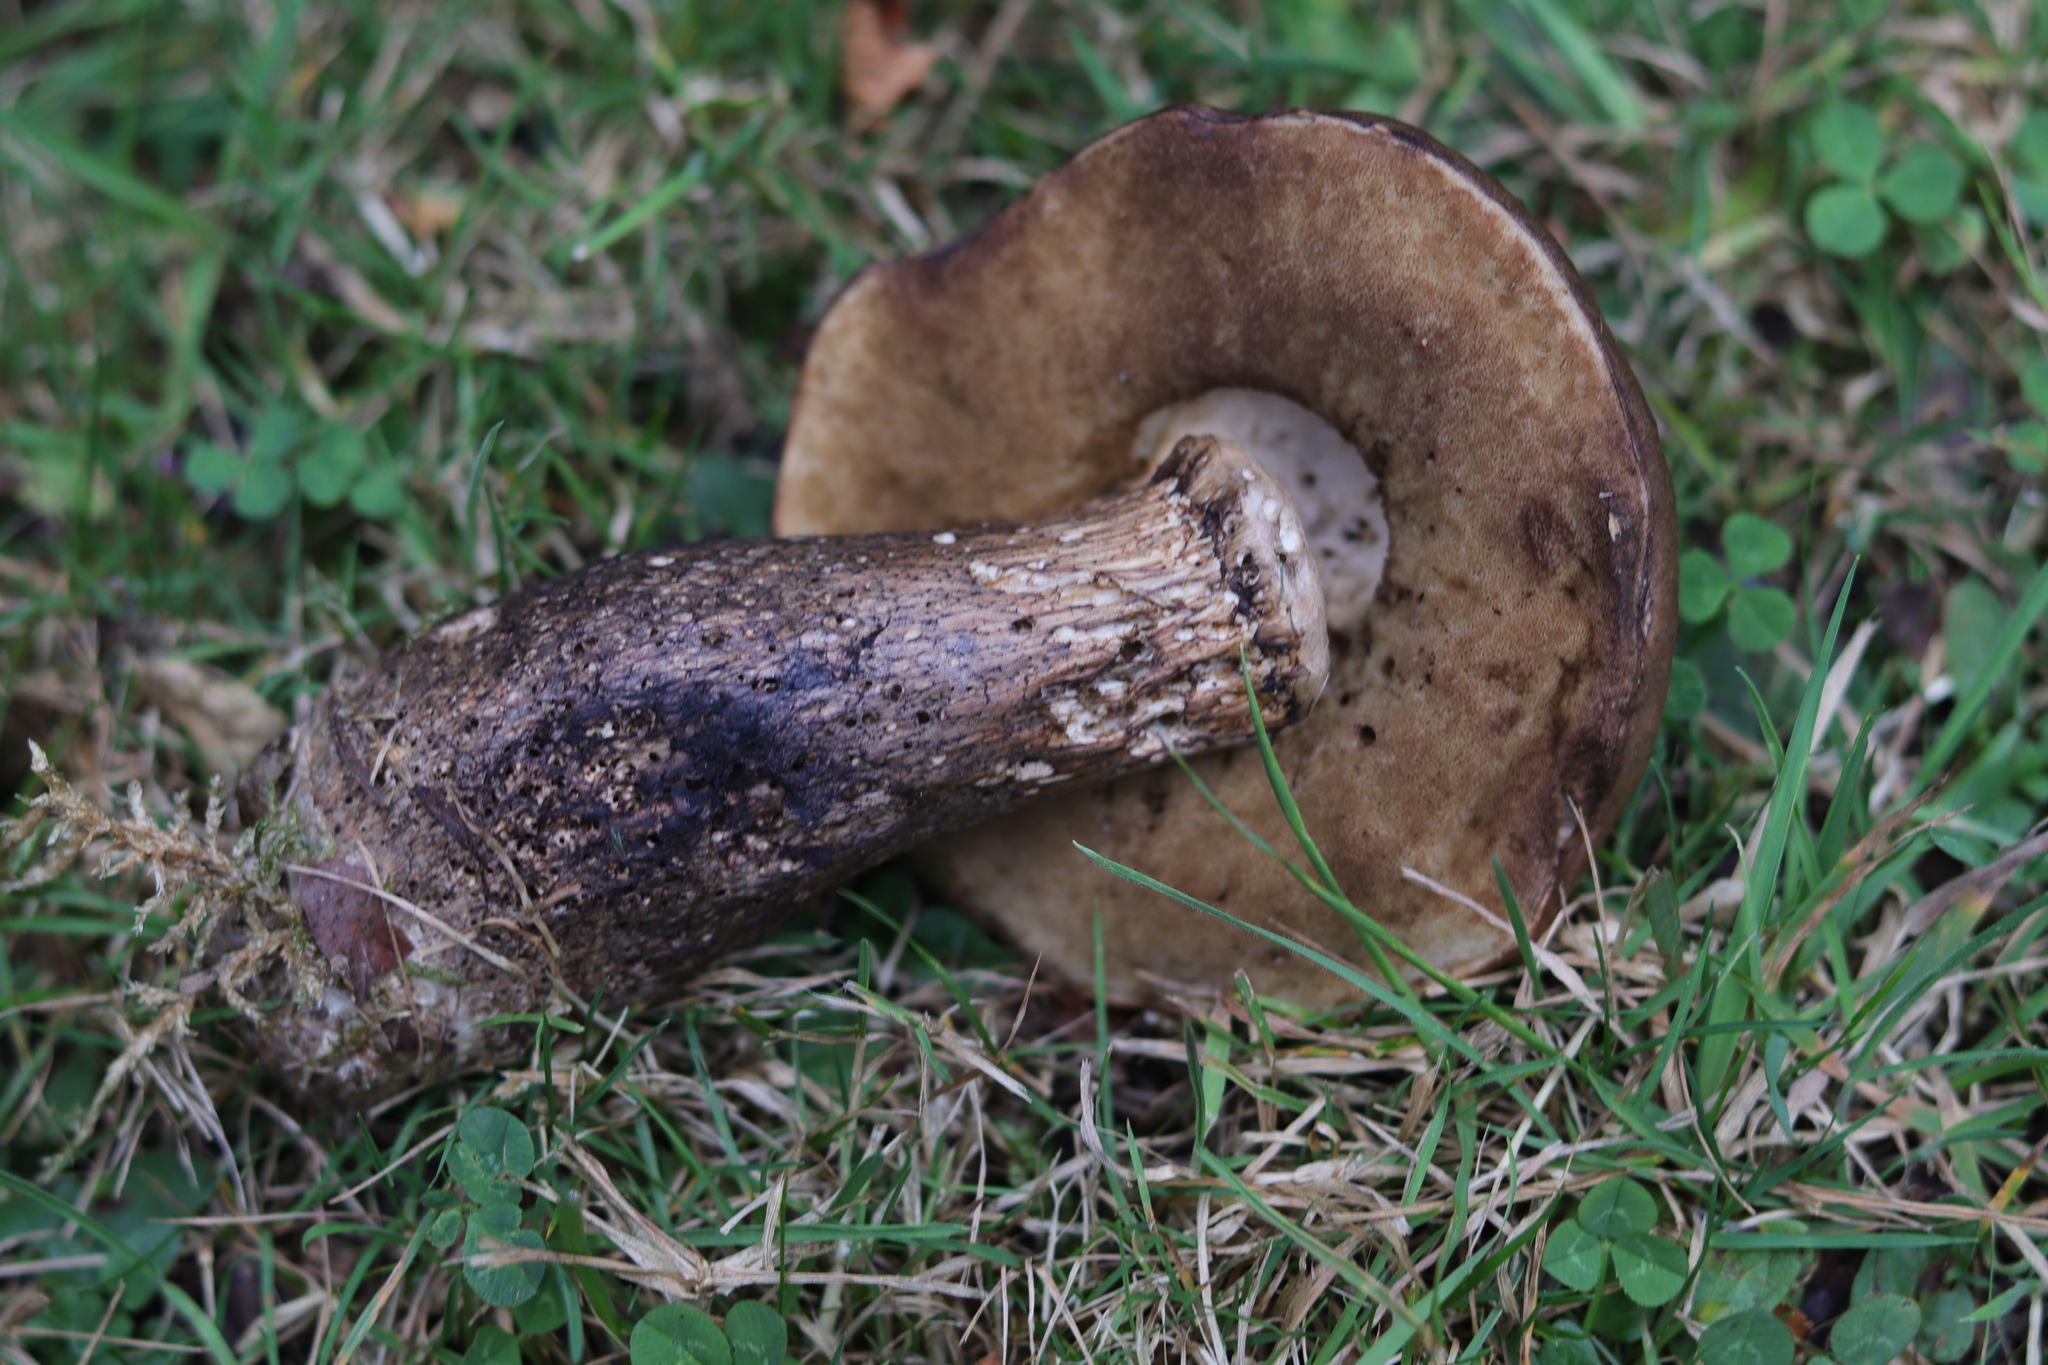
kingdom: Fungi
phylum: Basidiomycota
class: Agaricomycetes
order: Boletales
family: Boletaceae
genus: Leccinum
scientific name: Leccinum scabrum
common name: Blushing bolete
